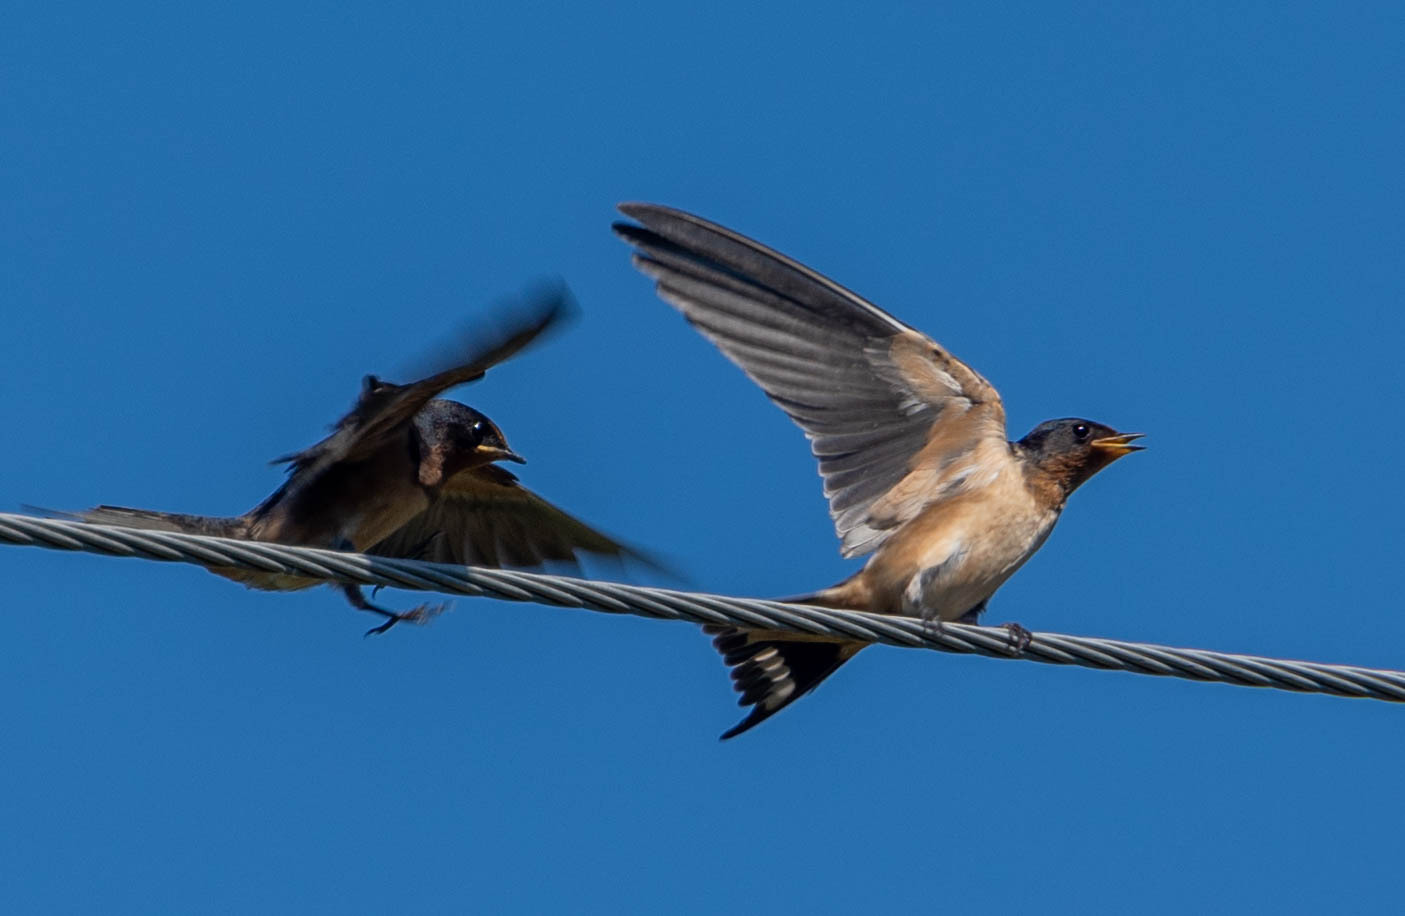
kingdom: Animalia
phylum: Chordata
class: Aves
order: Passeriformes
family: Hirundinidae
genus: Hirundo
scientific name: Hirundo rustica
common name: Barn swallow
